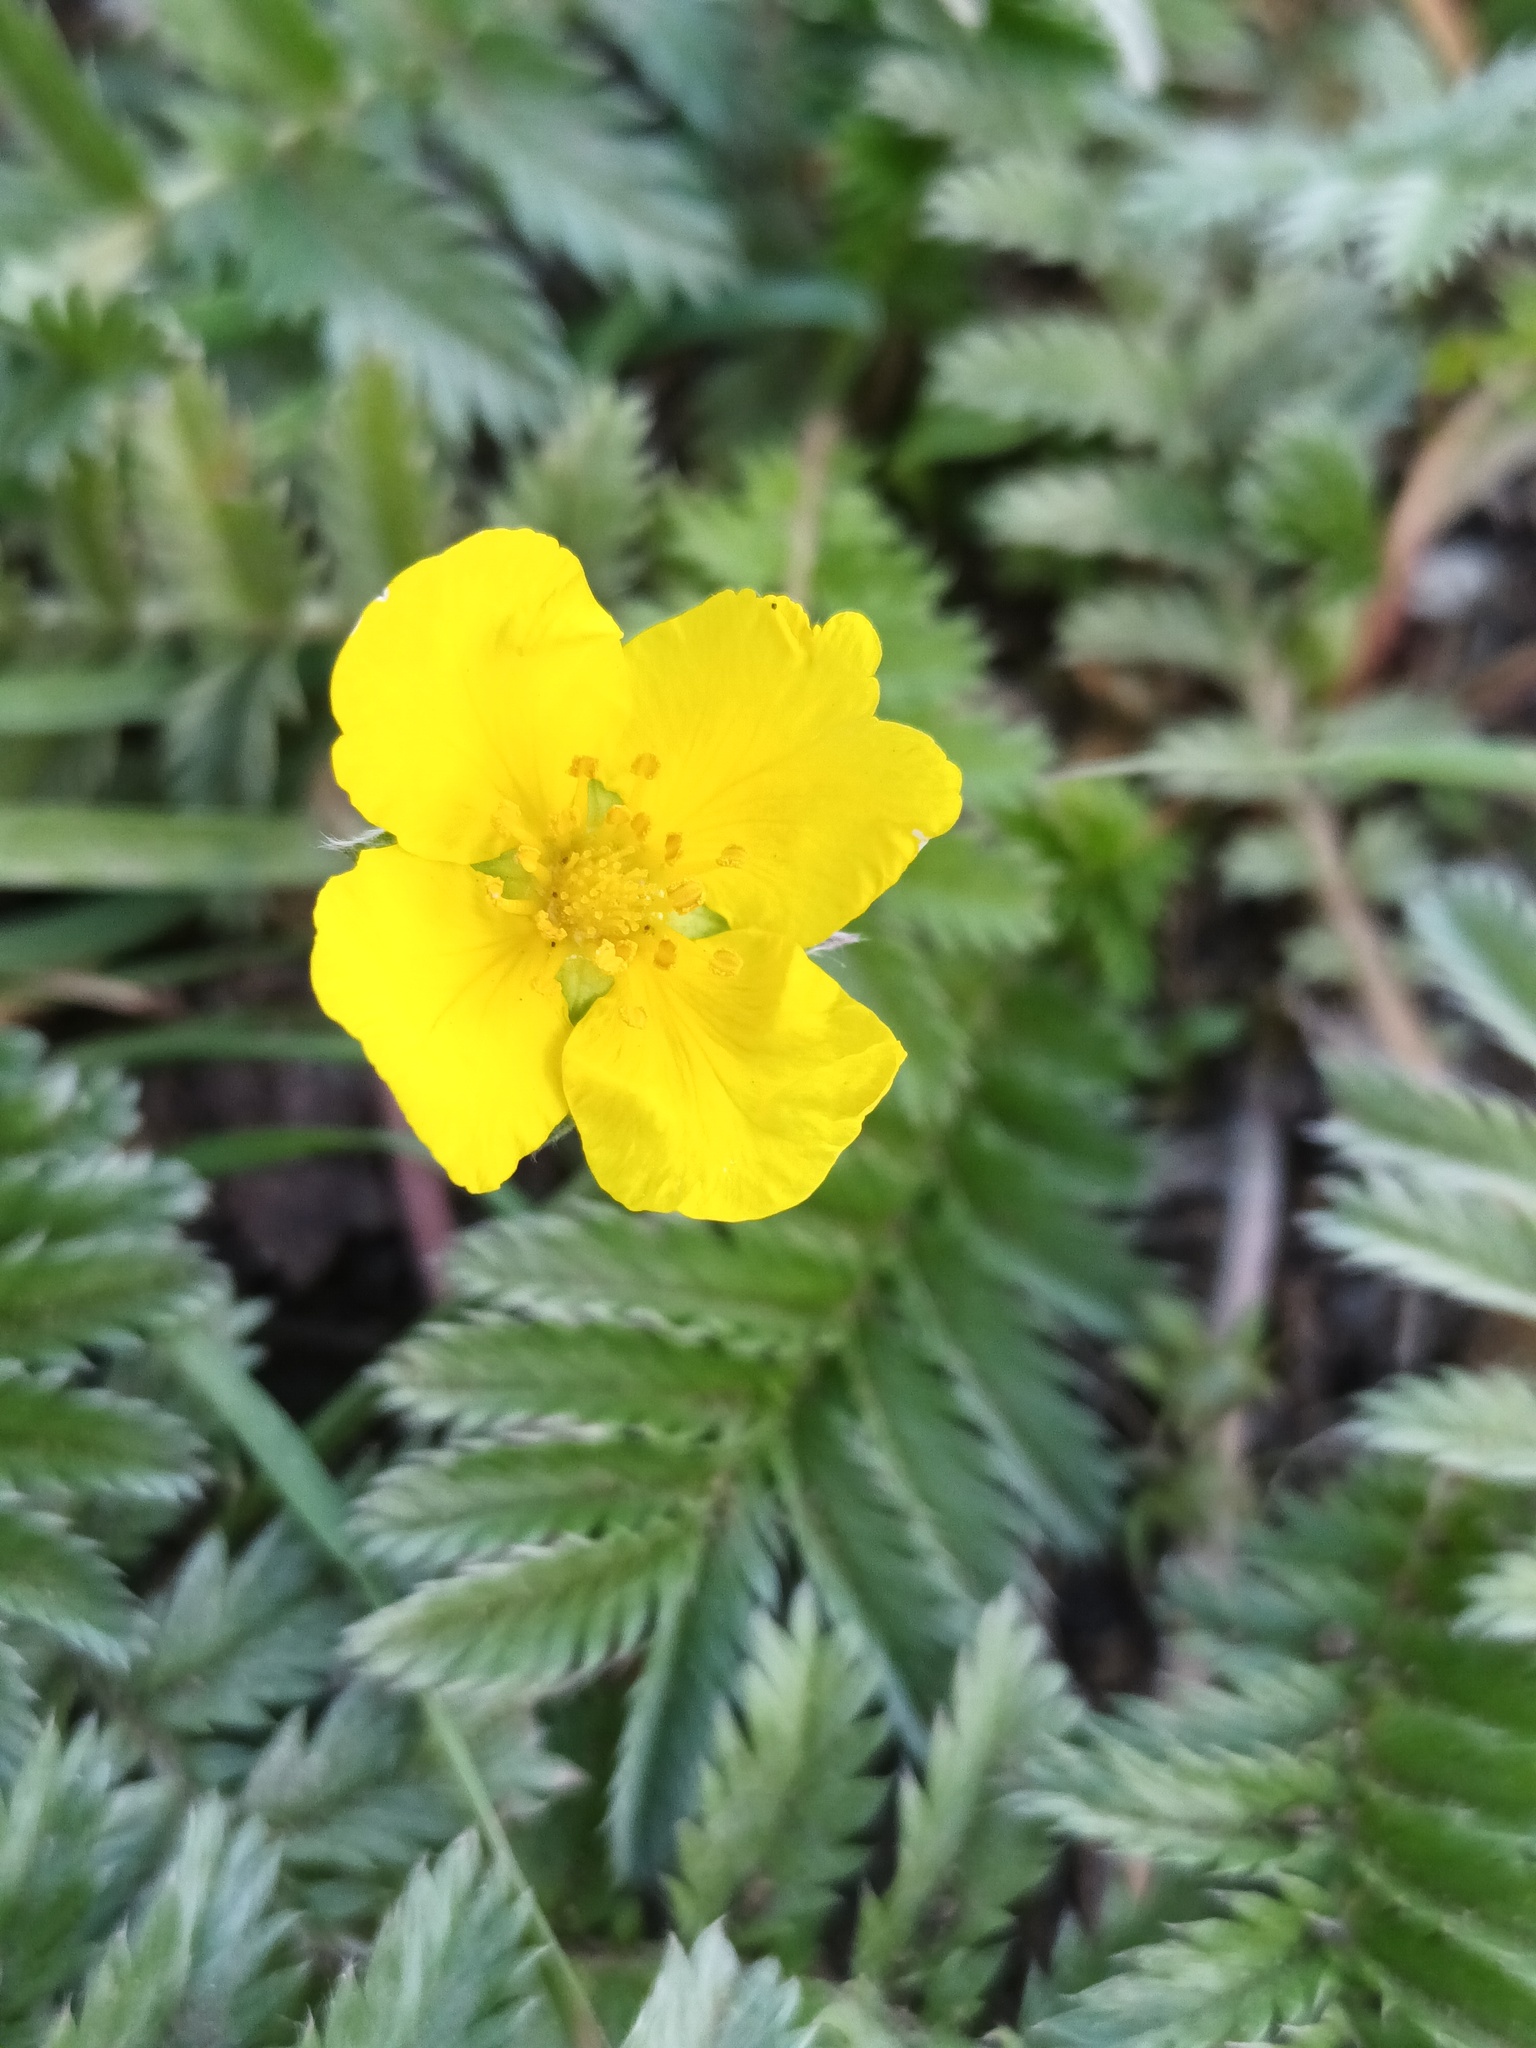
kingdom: Plantae
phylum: Tracheophyta
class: Magnoliopsida
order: Rosales
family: Rosaceae
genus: Argentina
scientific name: Argentina anserina
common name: Common silverweed
